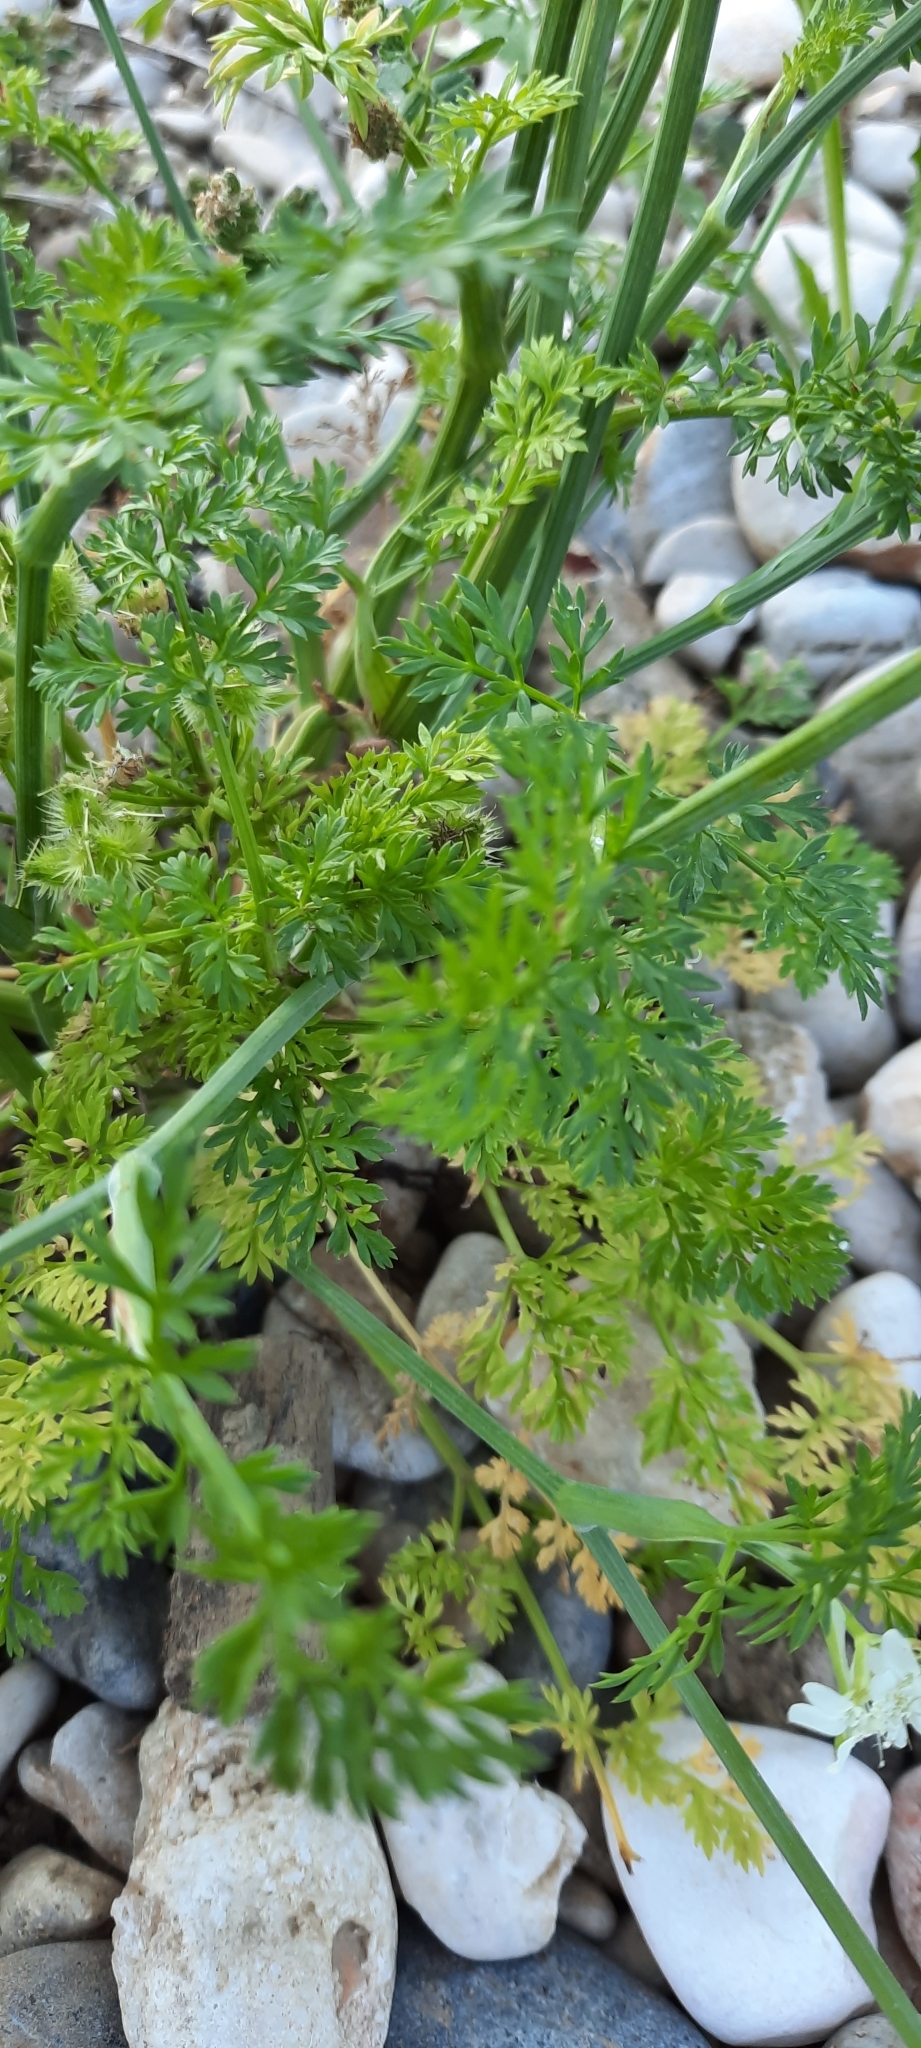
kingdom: Plantae
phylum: Tracheophyta
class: Magnoliopsida
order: Apiales
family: Apiaceae
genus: Orlaya
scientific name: Orlaya grandiflora
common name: White lace flower
